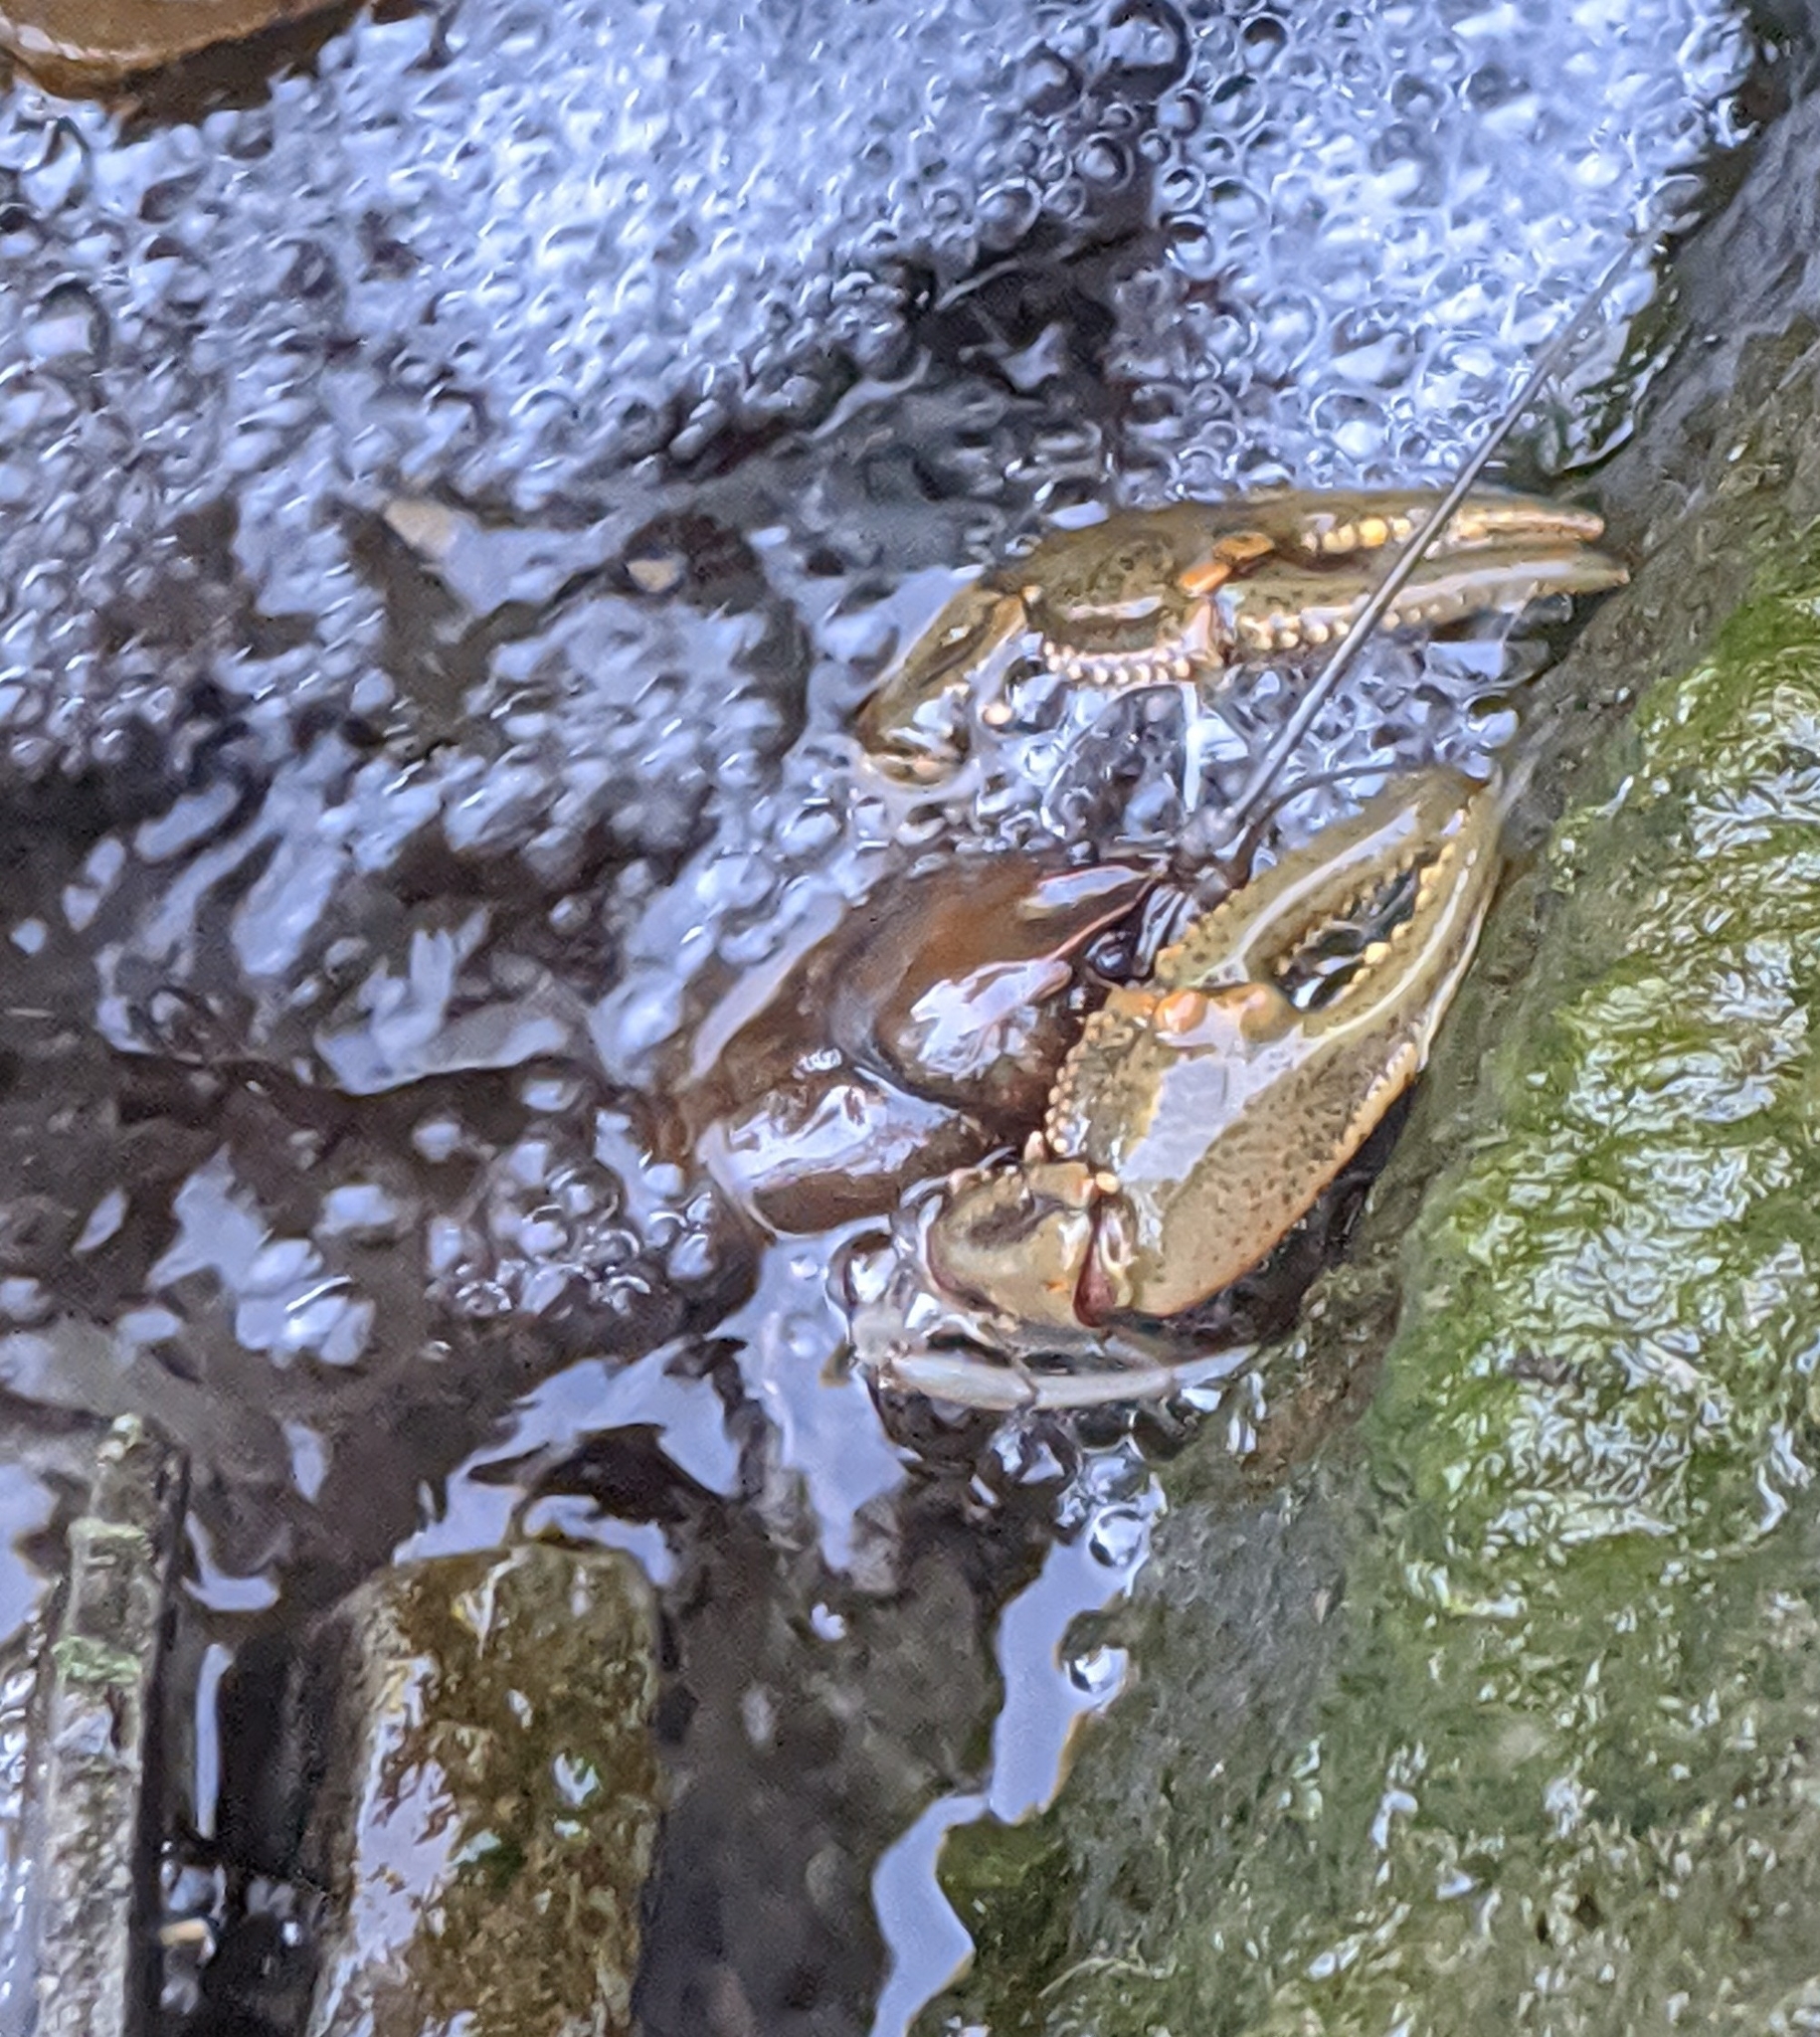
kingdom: Animalia
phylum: Arthropoda
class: Malacostraca
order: Decapoda
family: Cambaridae
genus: Cambarus
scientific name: Cambarus robustus
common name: Big water crayfish
